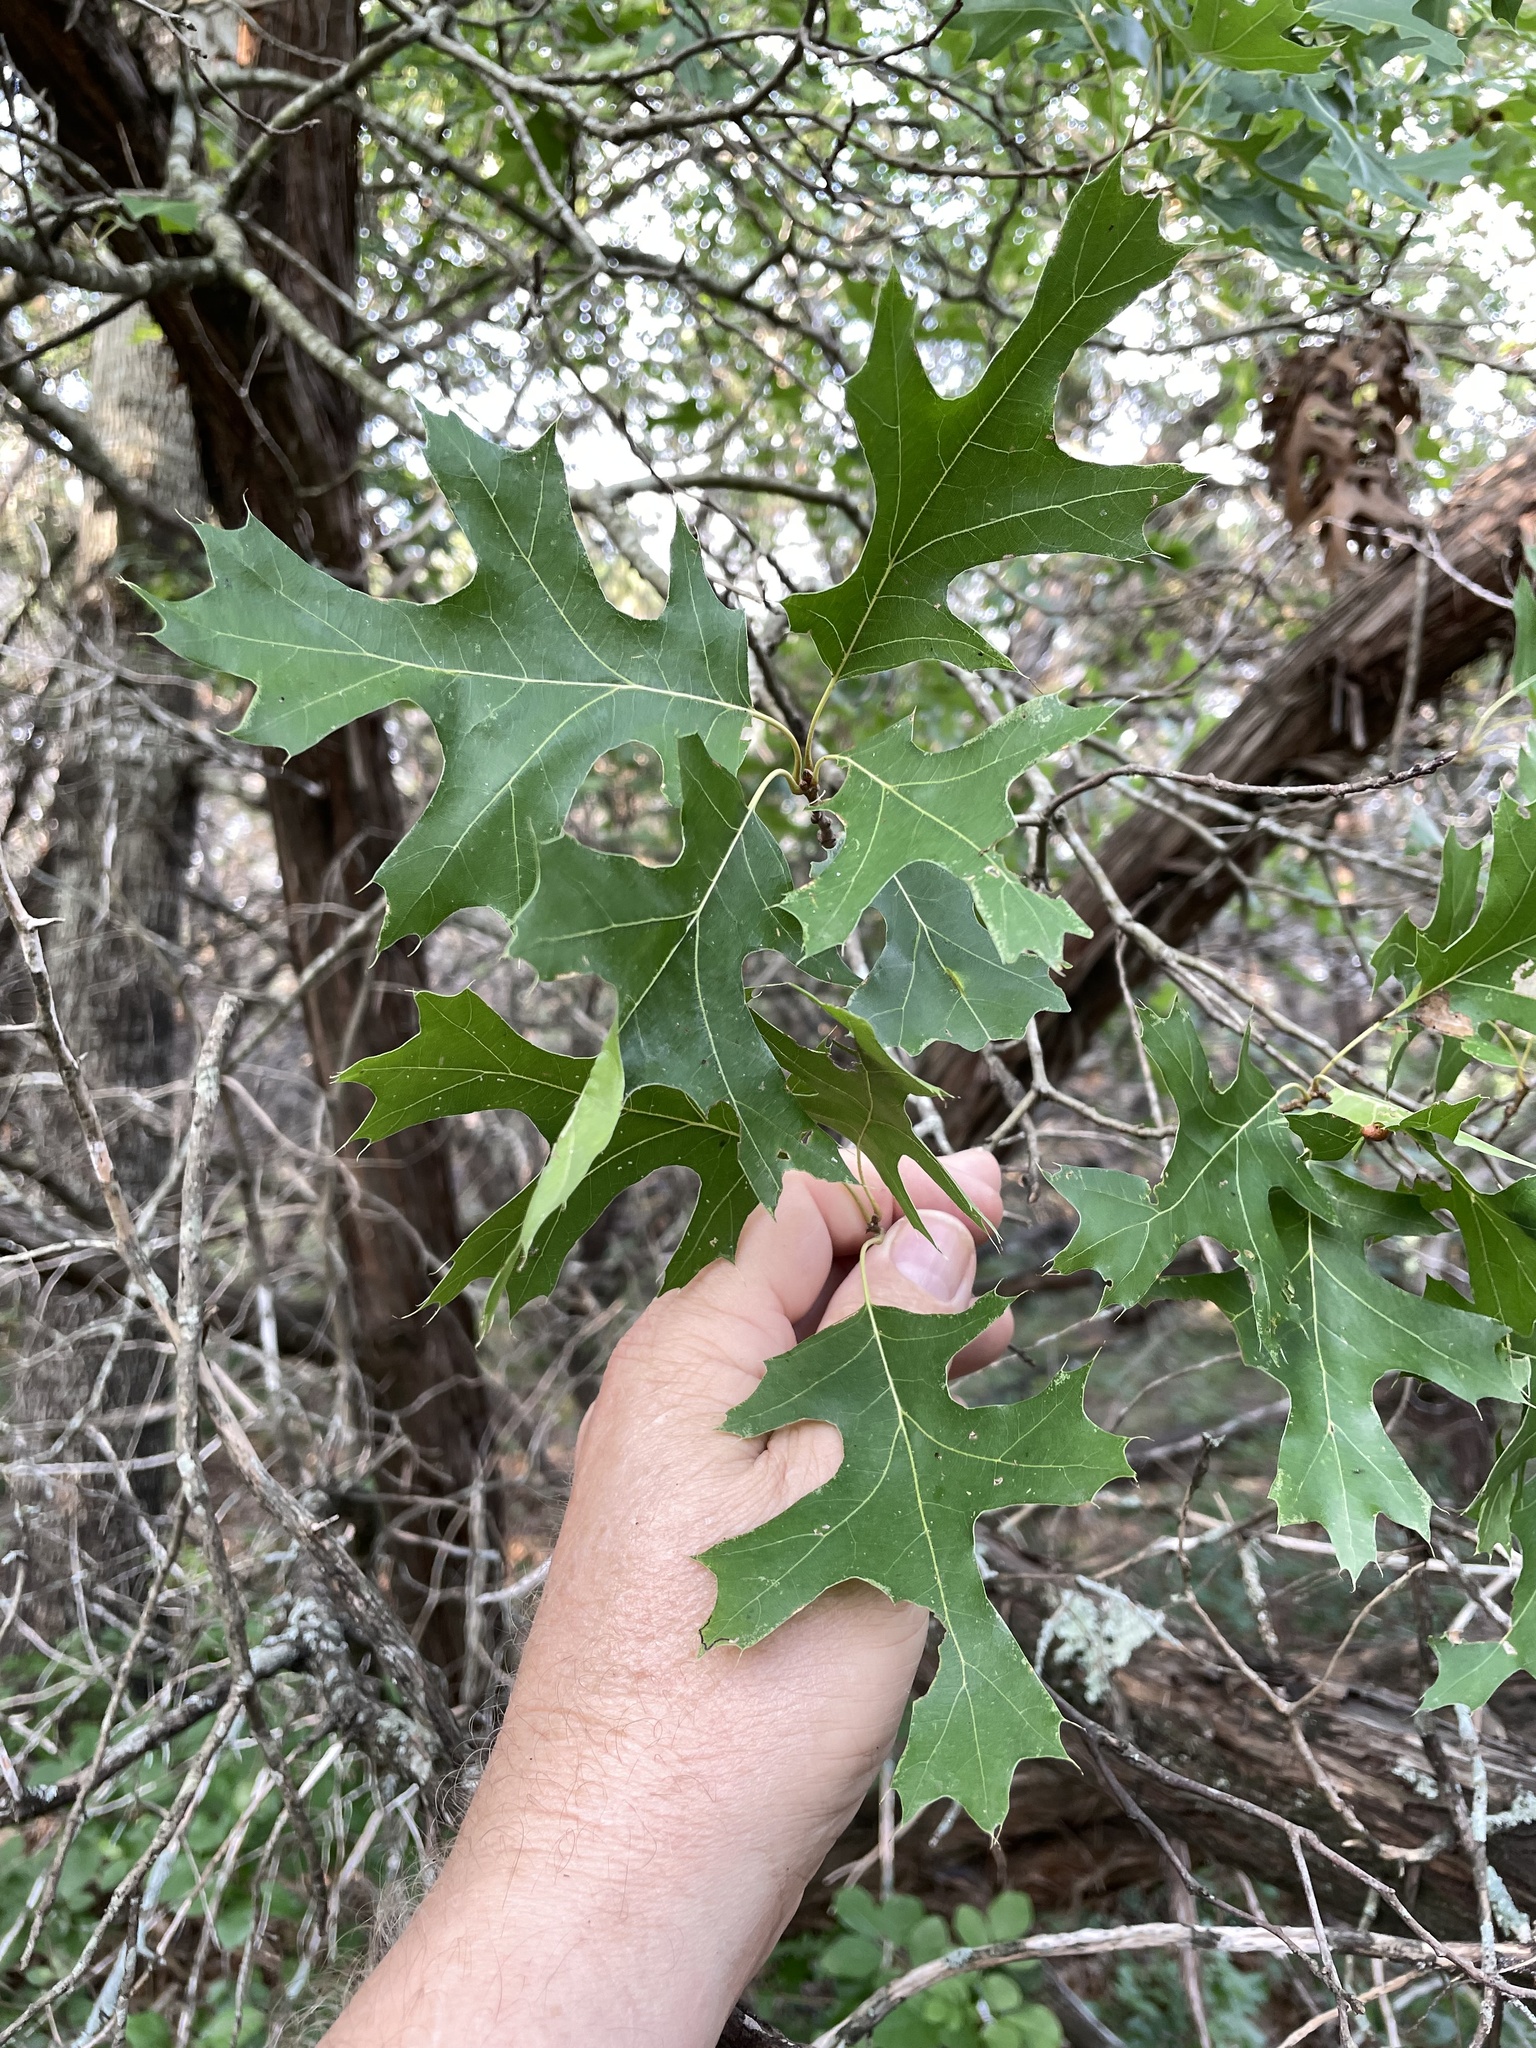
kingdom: Plantae
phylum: Tracheophyta
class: Magnoliopsida
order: Fagales
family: Fagaceae
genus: Quercus
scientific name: Quercus shumardii
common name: Shumard oak
